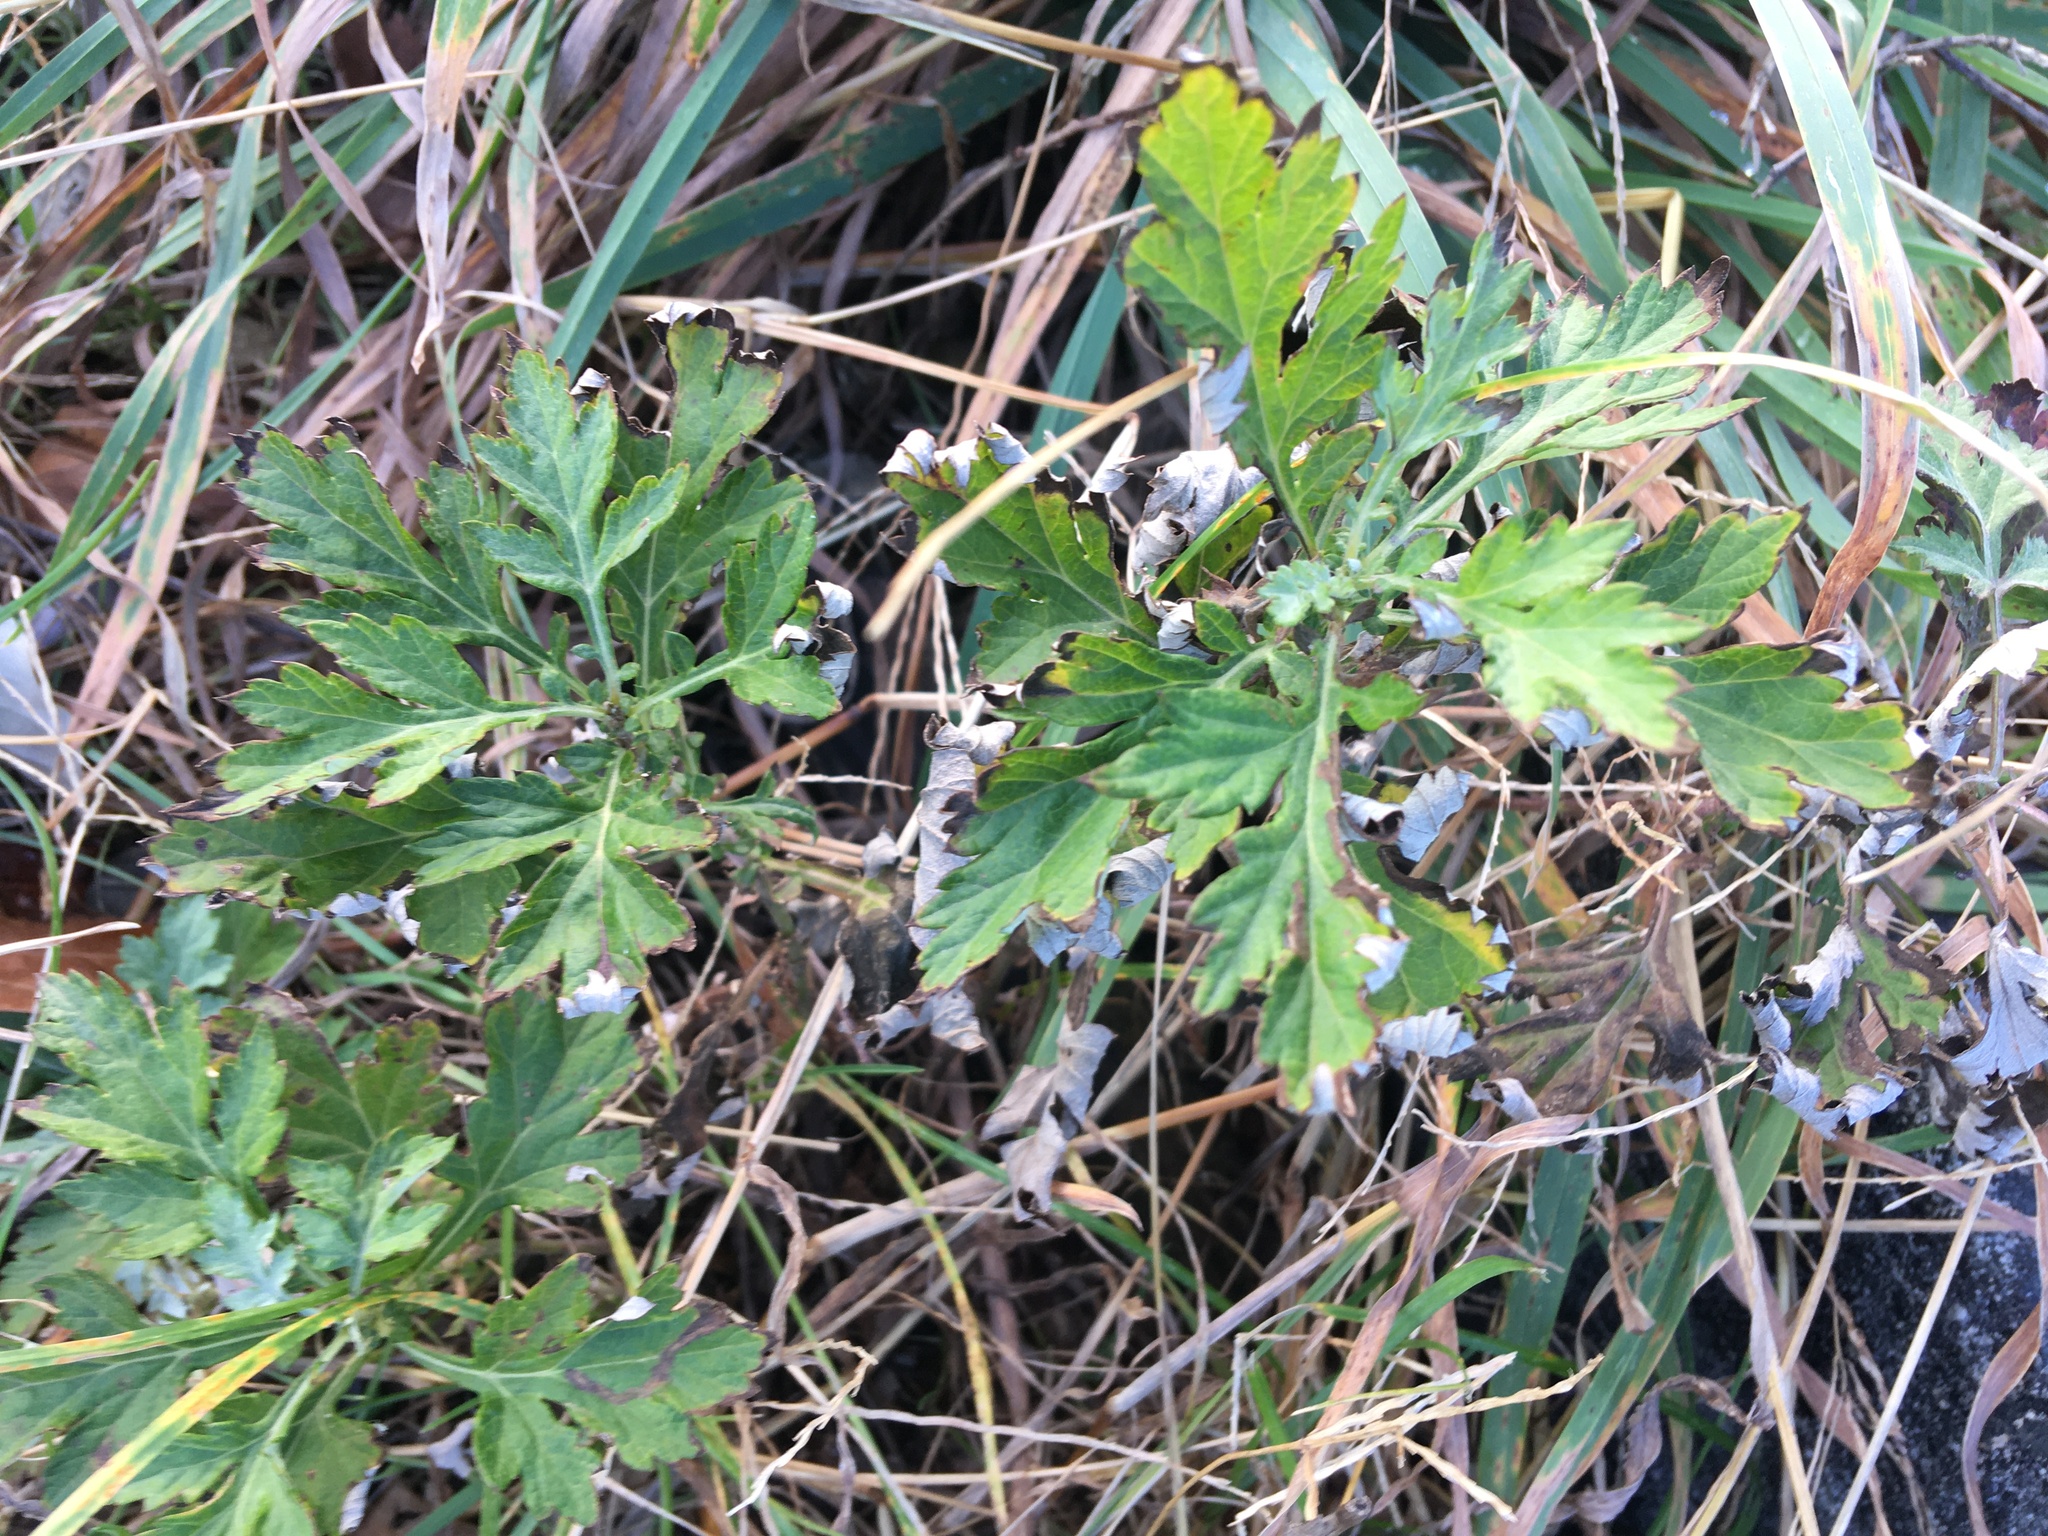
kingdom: Plantae
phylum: Tracheophyta
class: Magnoliopsida
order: Asterales
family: Asteraceae
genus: Artemisia
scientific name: Artemisia vulgaris
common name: Mugwort
